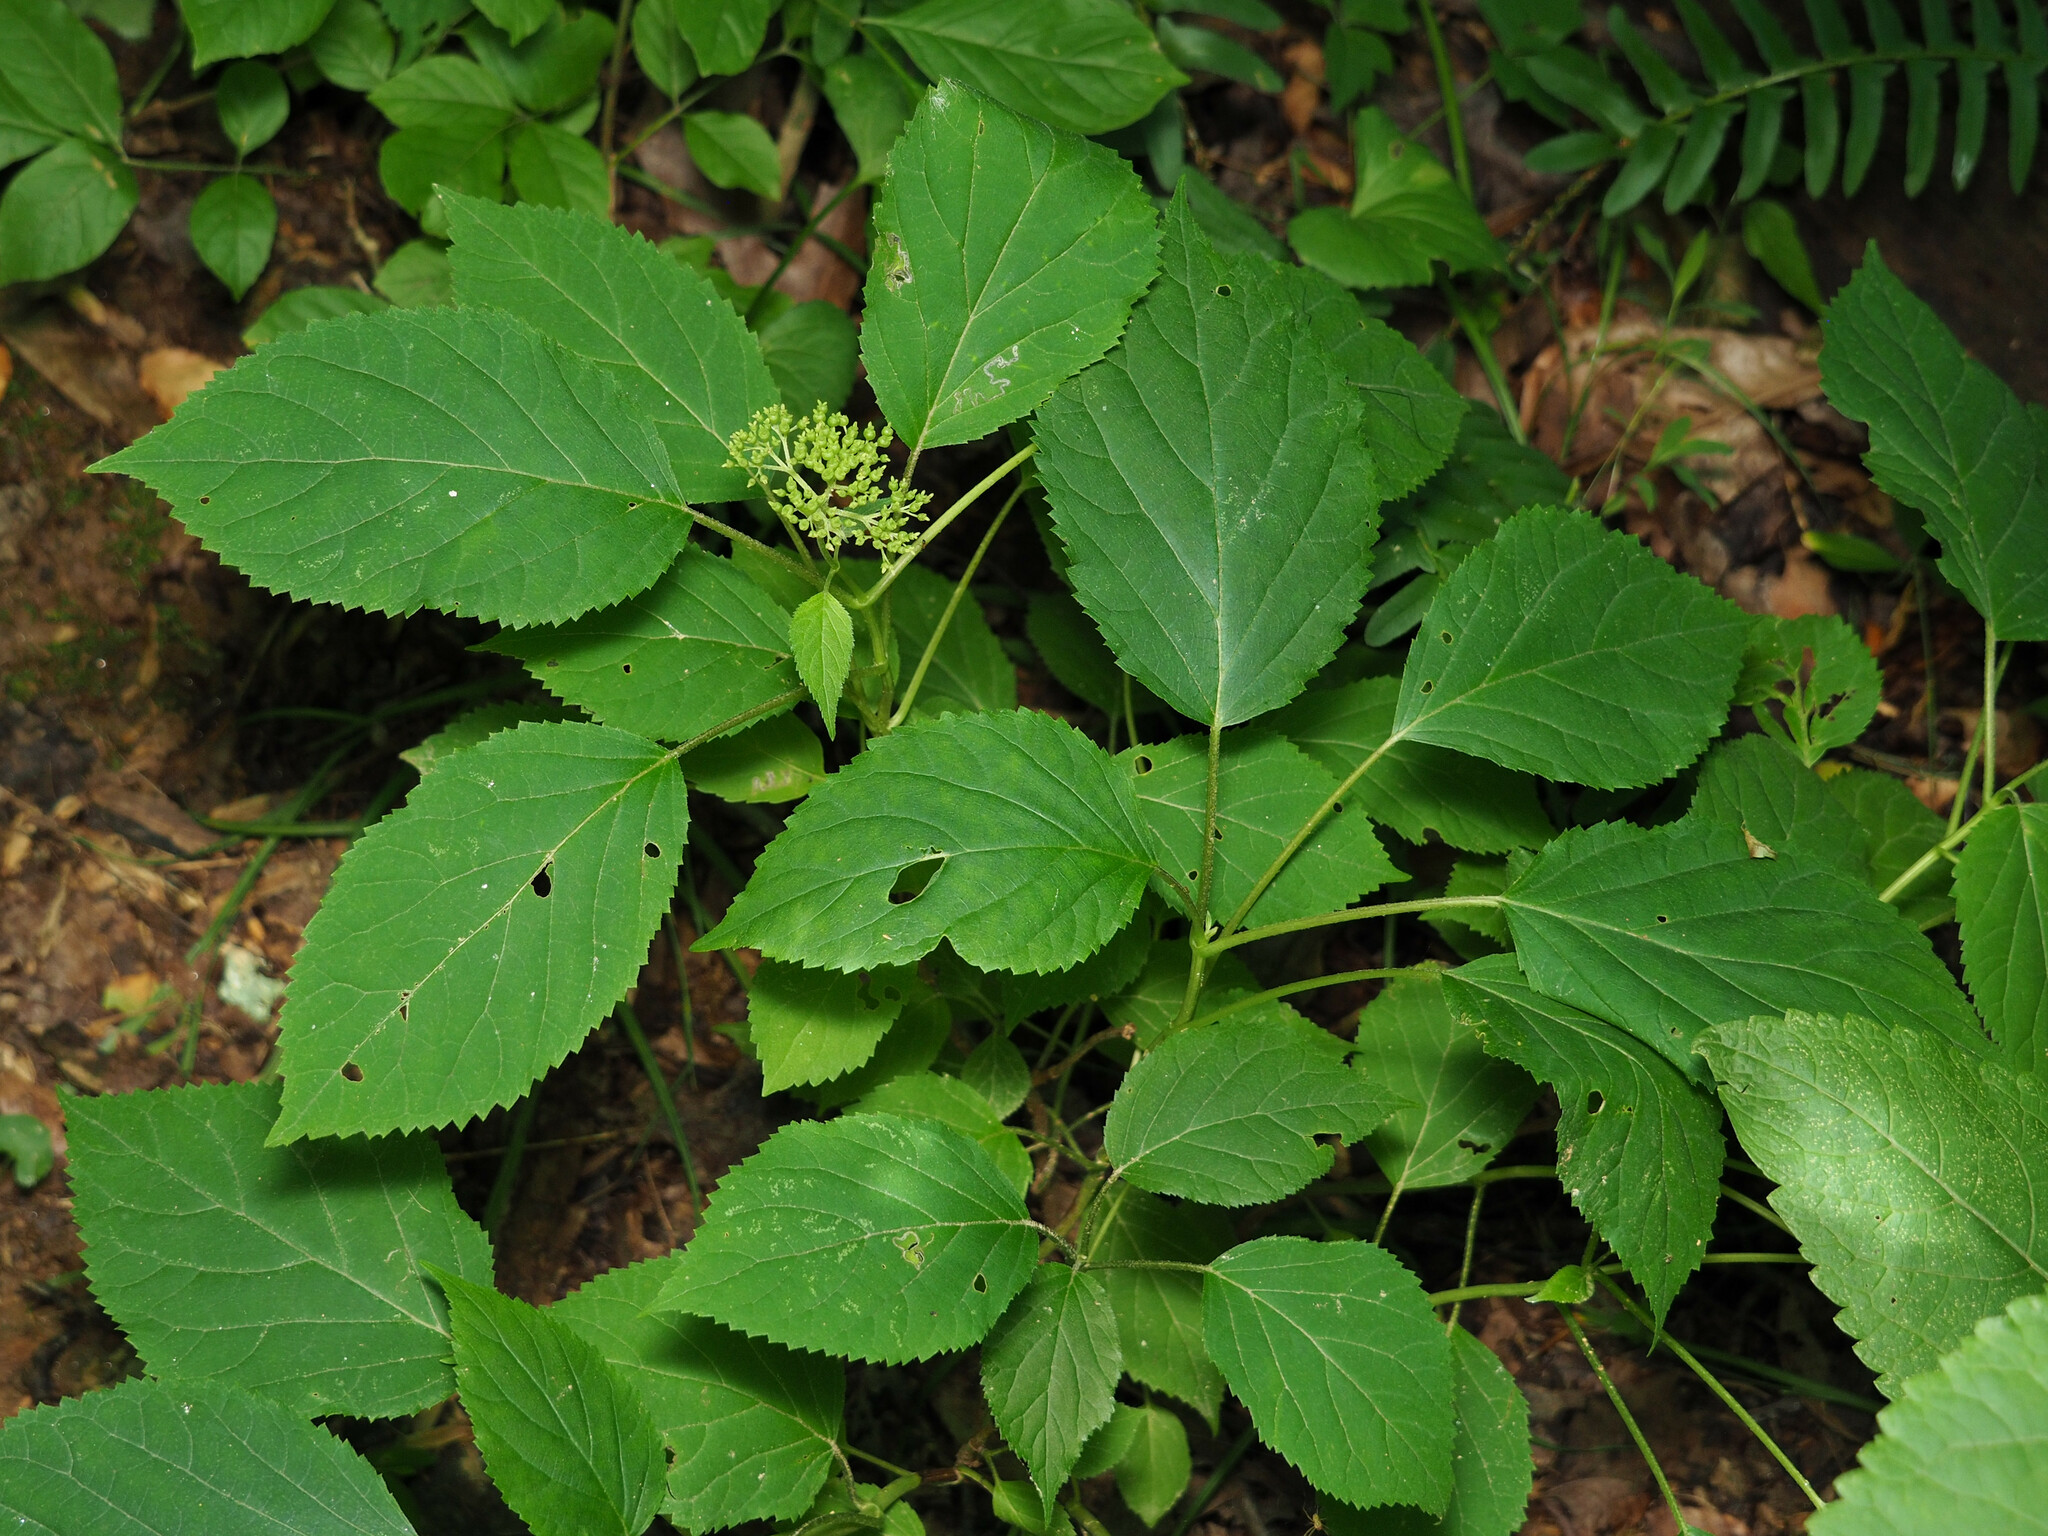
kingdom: Plantae
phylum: Tracheophyta
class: Magnoliopsida
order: Cornales
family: Hydrangeaceae
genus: Hydrangea
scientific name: Hydrangea arborescens
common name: Sevenbark
